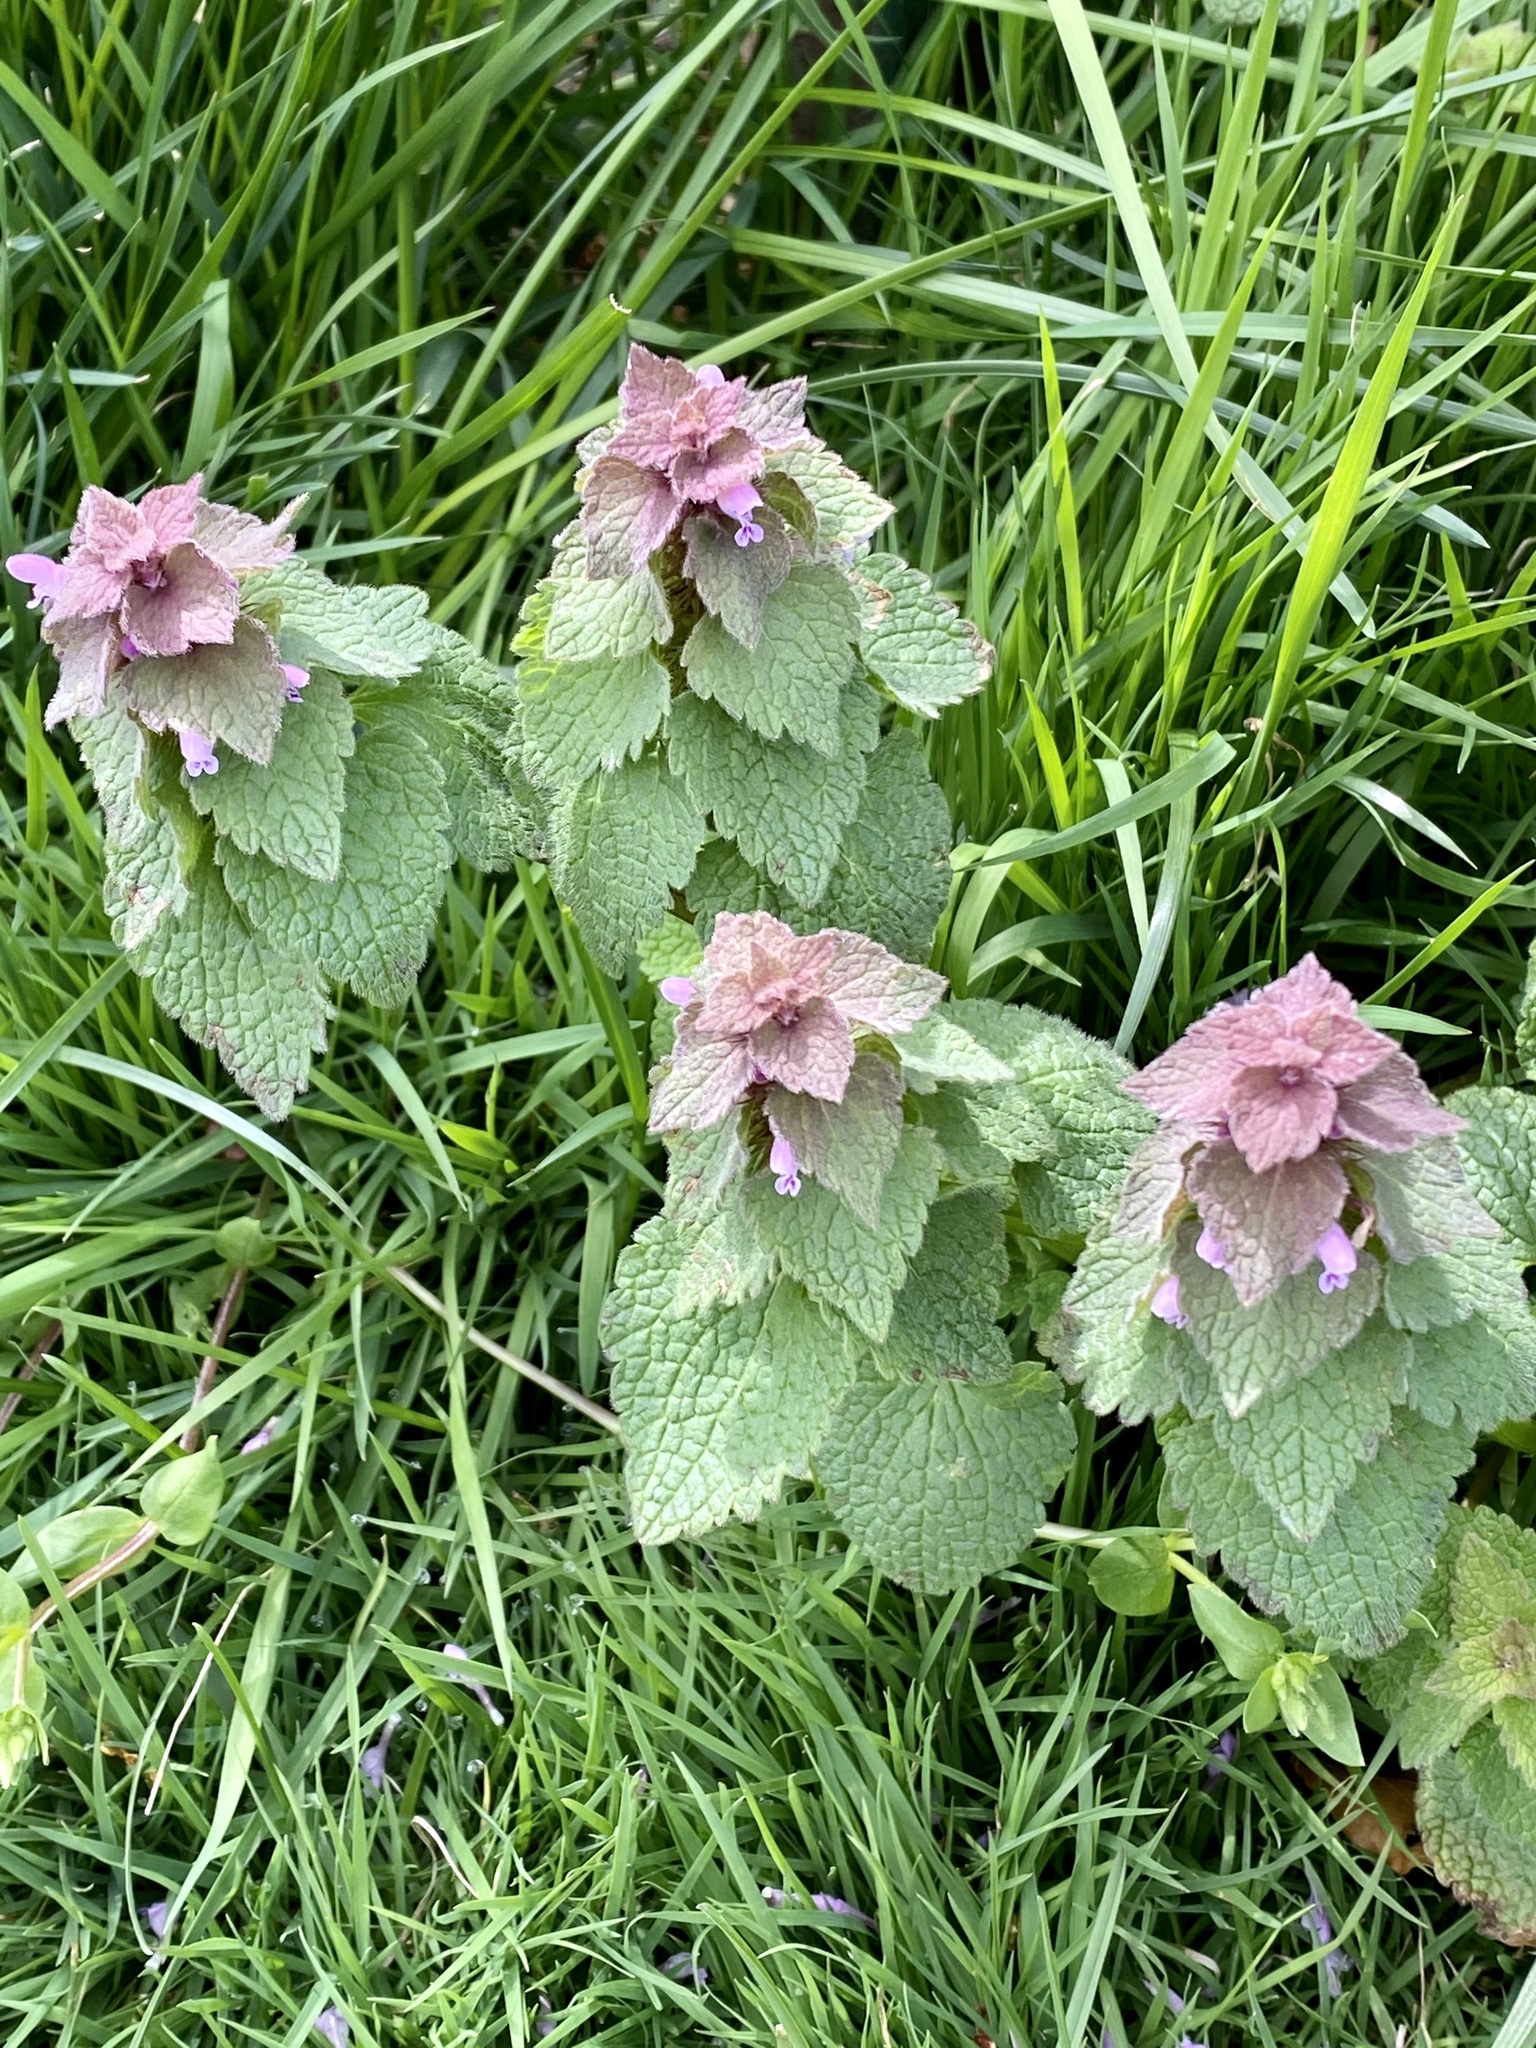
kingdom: Plantae
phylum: Tracheophyta
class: Magnoliopsida
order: Lamiales
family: Lamiaceae
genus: Lamium
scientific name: Lamium purpureum
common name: Red dead-nettle
